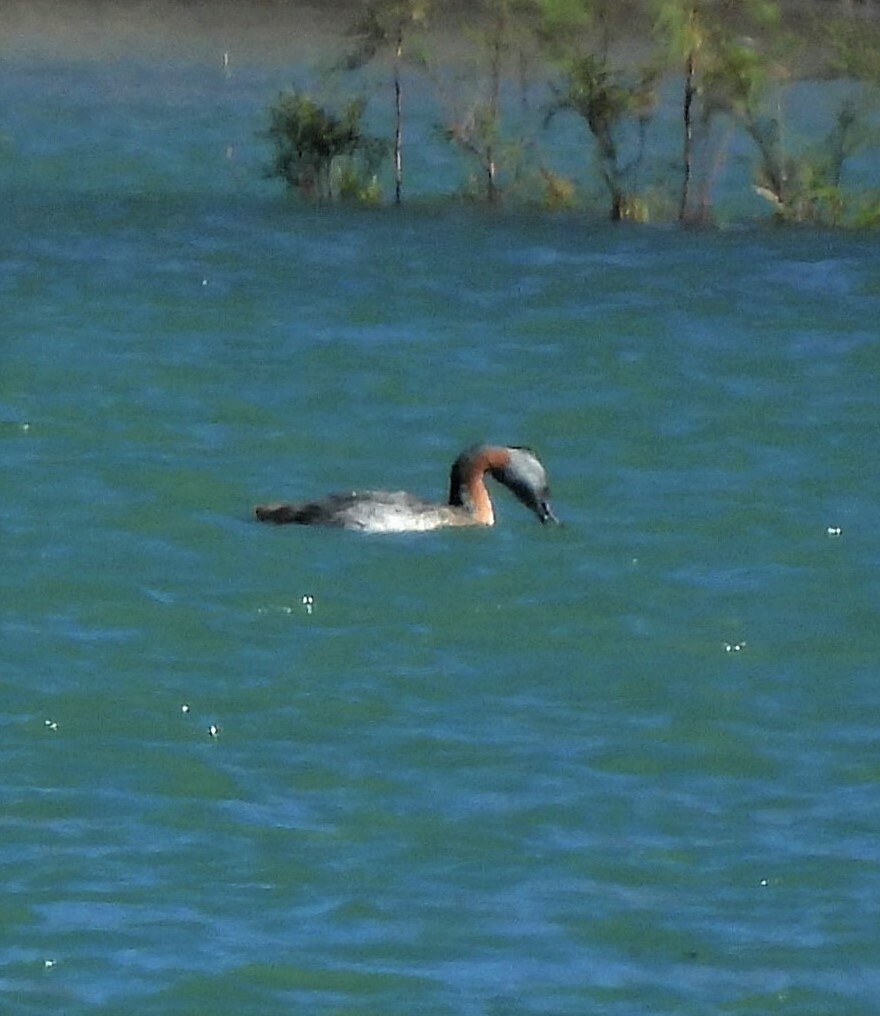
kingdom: Animalia
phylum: Chordata
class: Aves
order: Podicipediformes
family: Podicipedidae
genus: Podiceps
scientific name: Podiceps major
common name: Great grebe
